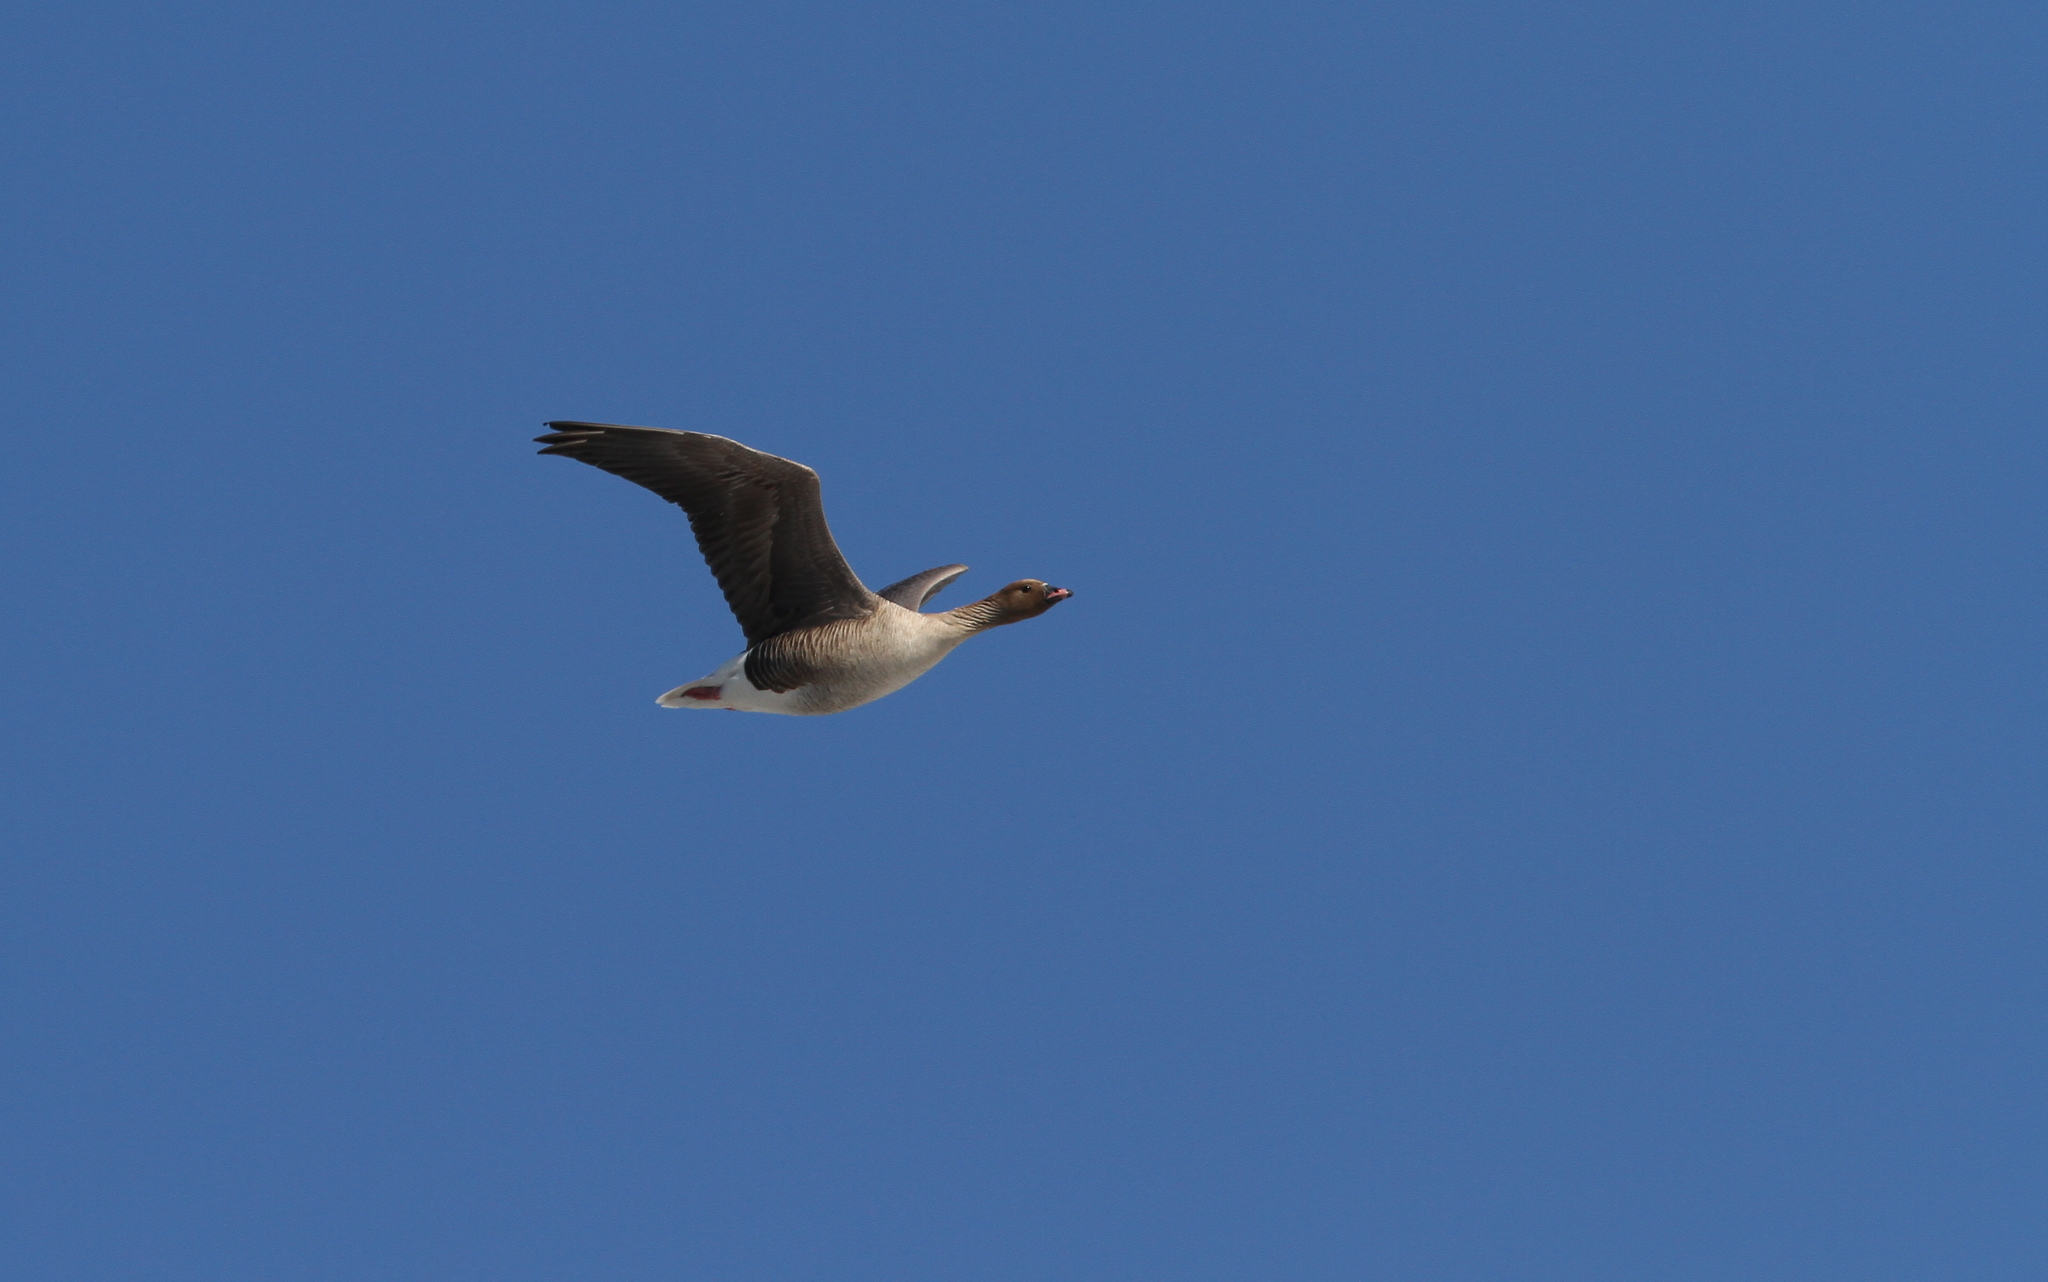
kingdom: Animalia
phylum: Chordata
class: Aves
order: Anseriformes
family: Anatidae
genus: Anser
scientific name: Anser brachyrhynchus
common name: Pink-footed goose
